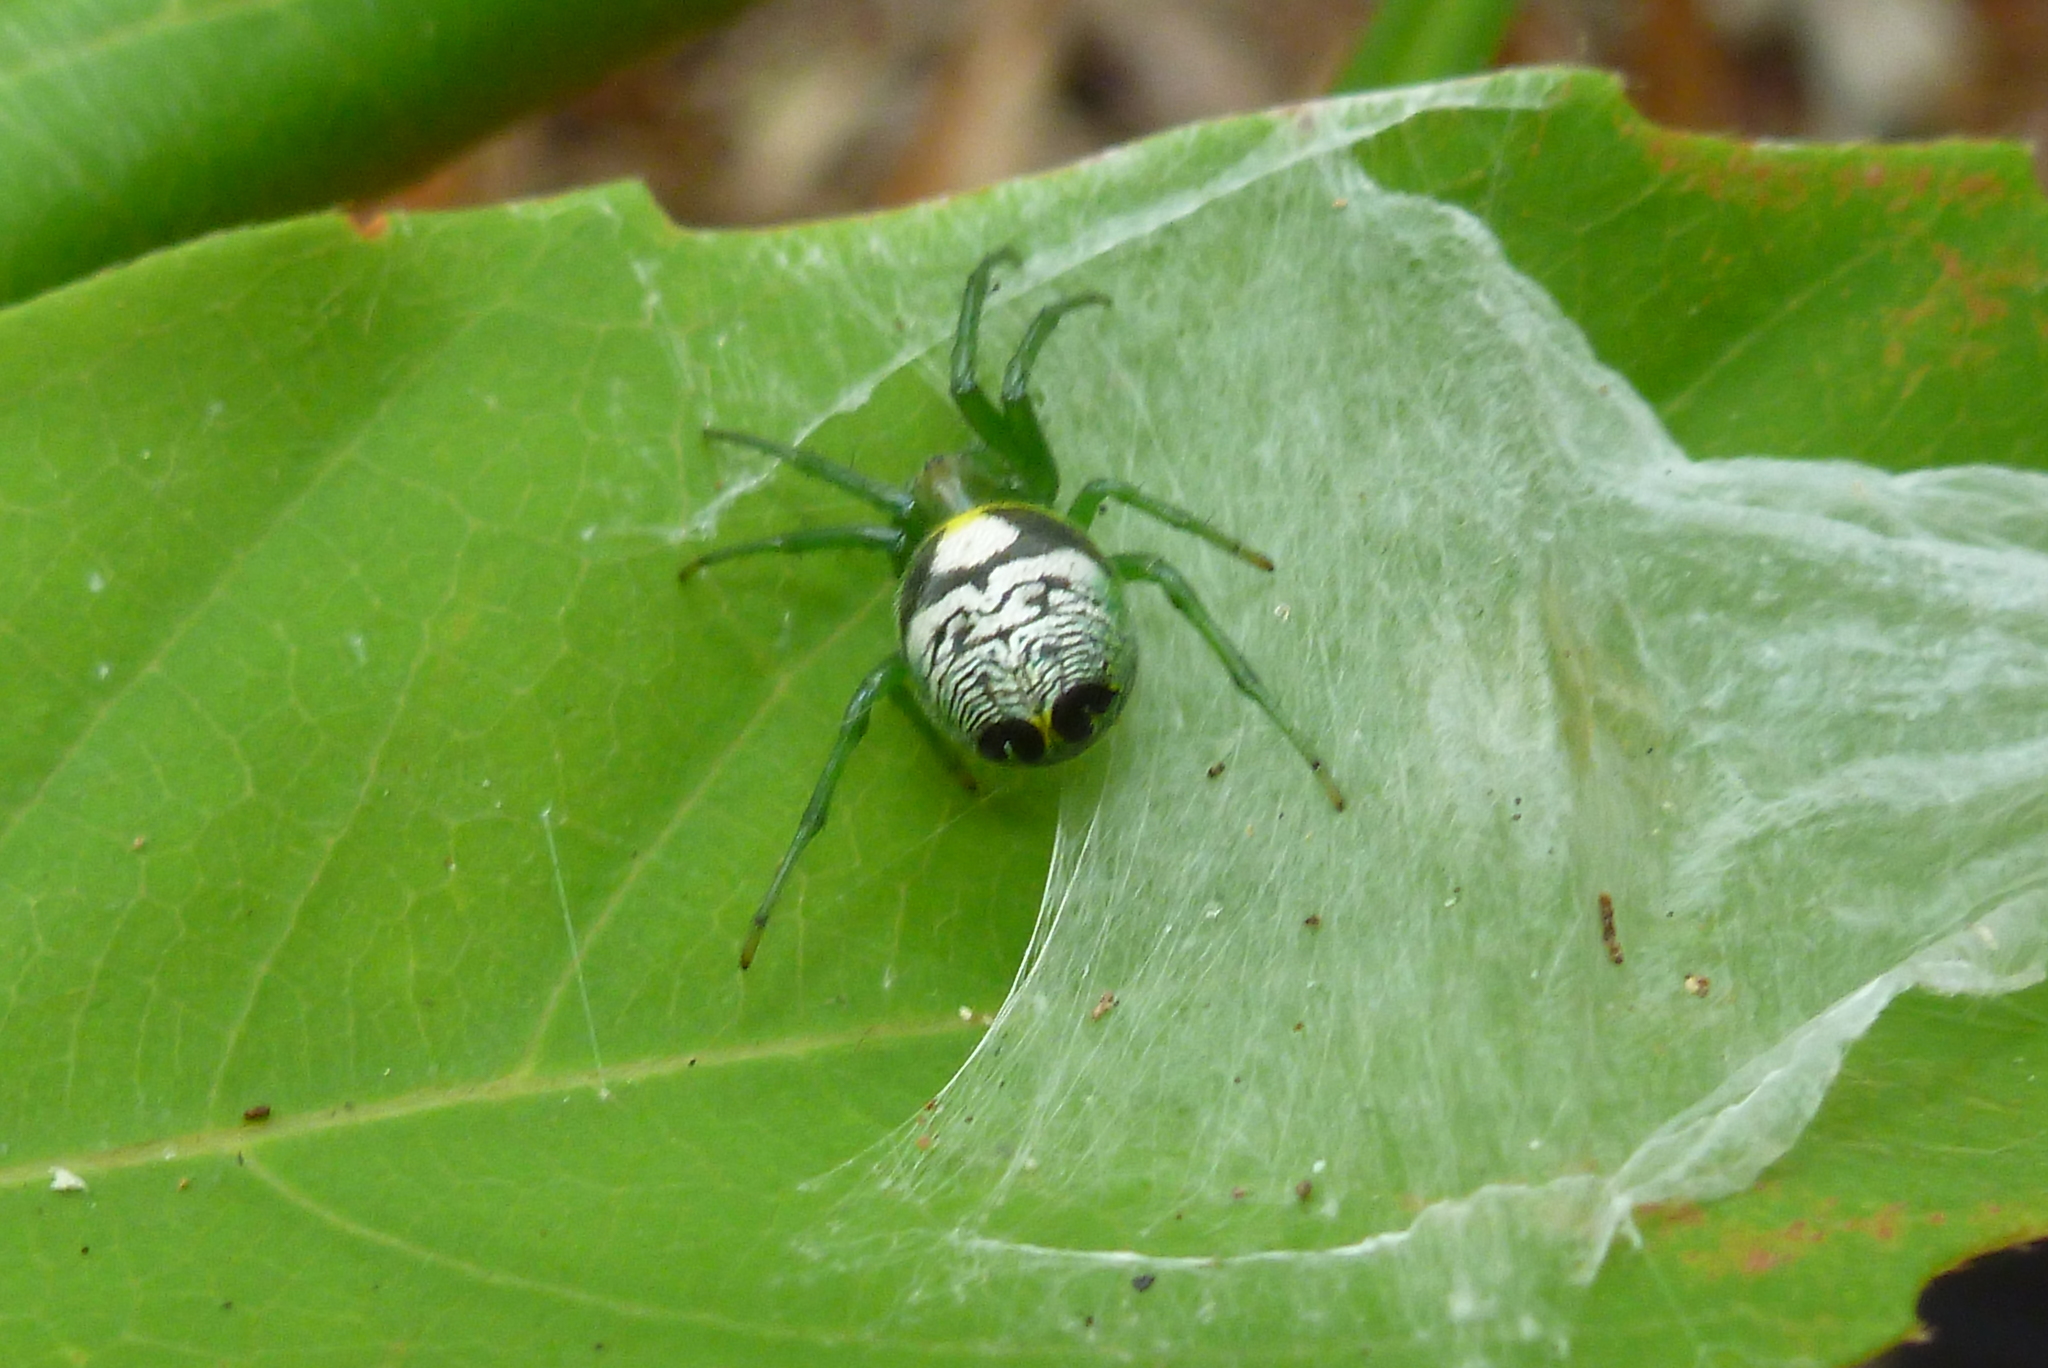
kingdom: Animalia
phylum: Arthropoda
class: Arachnida
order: Araneae
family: Araneidae
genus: Bijoaraneus
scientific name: Bijoaraneus praesignis
